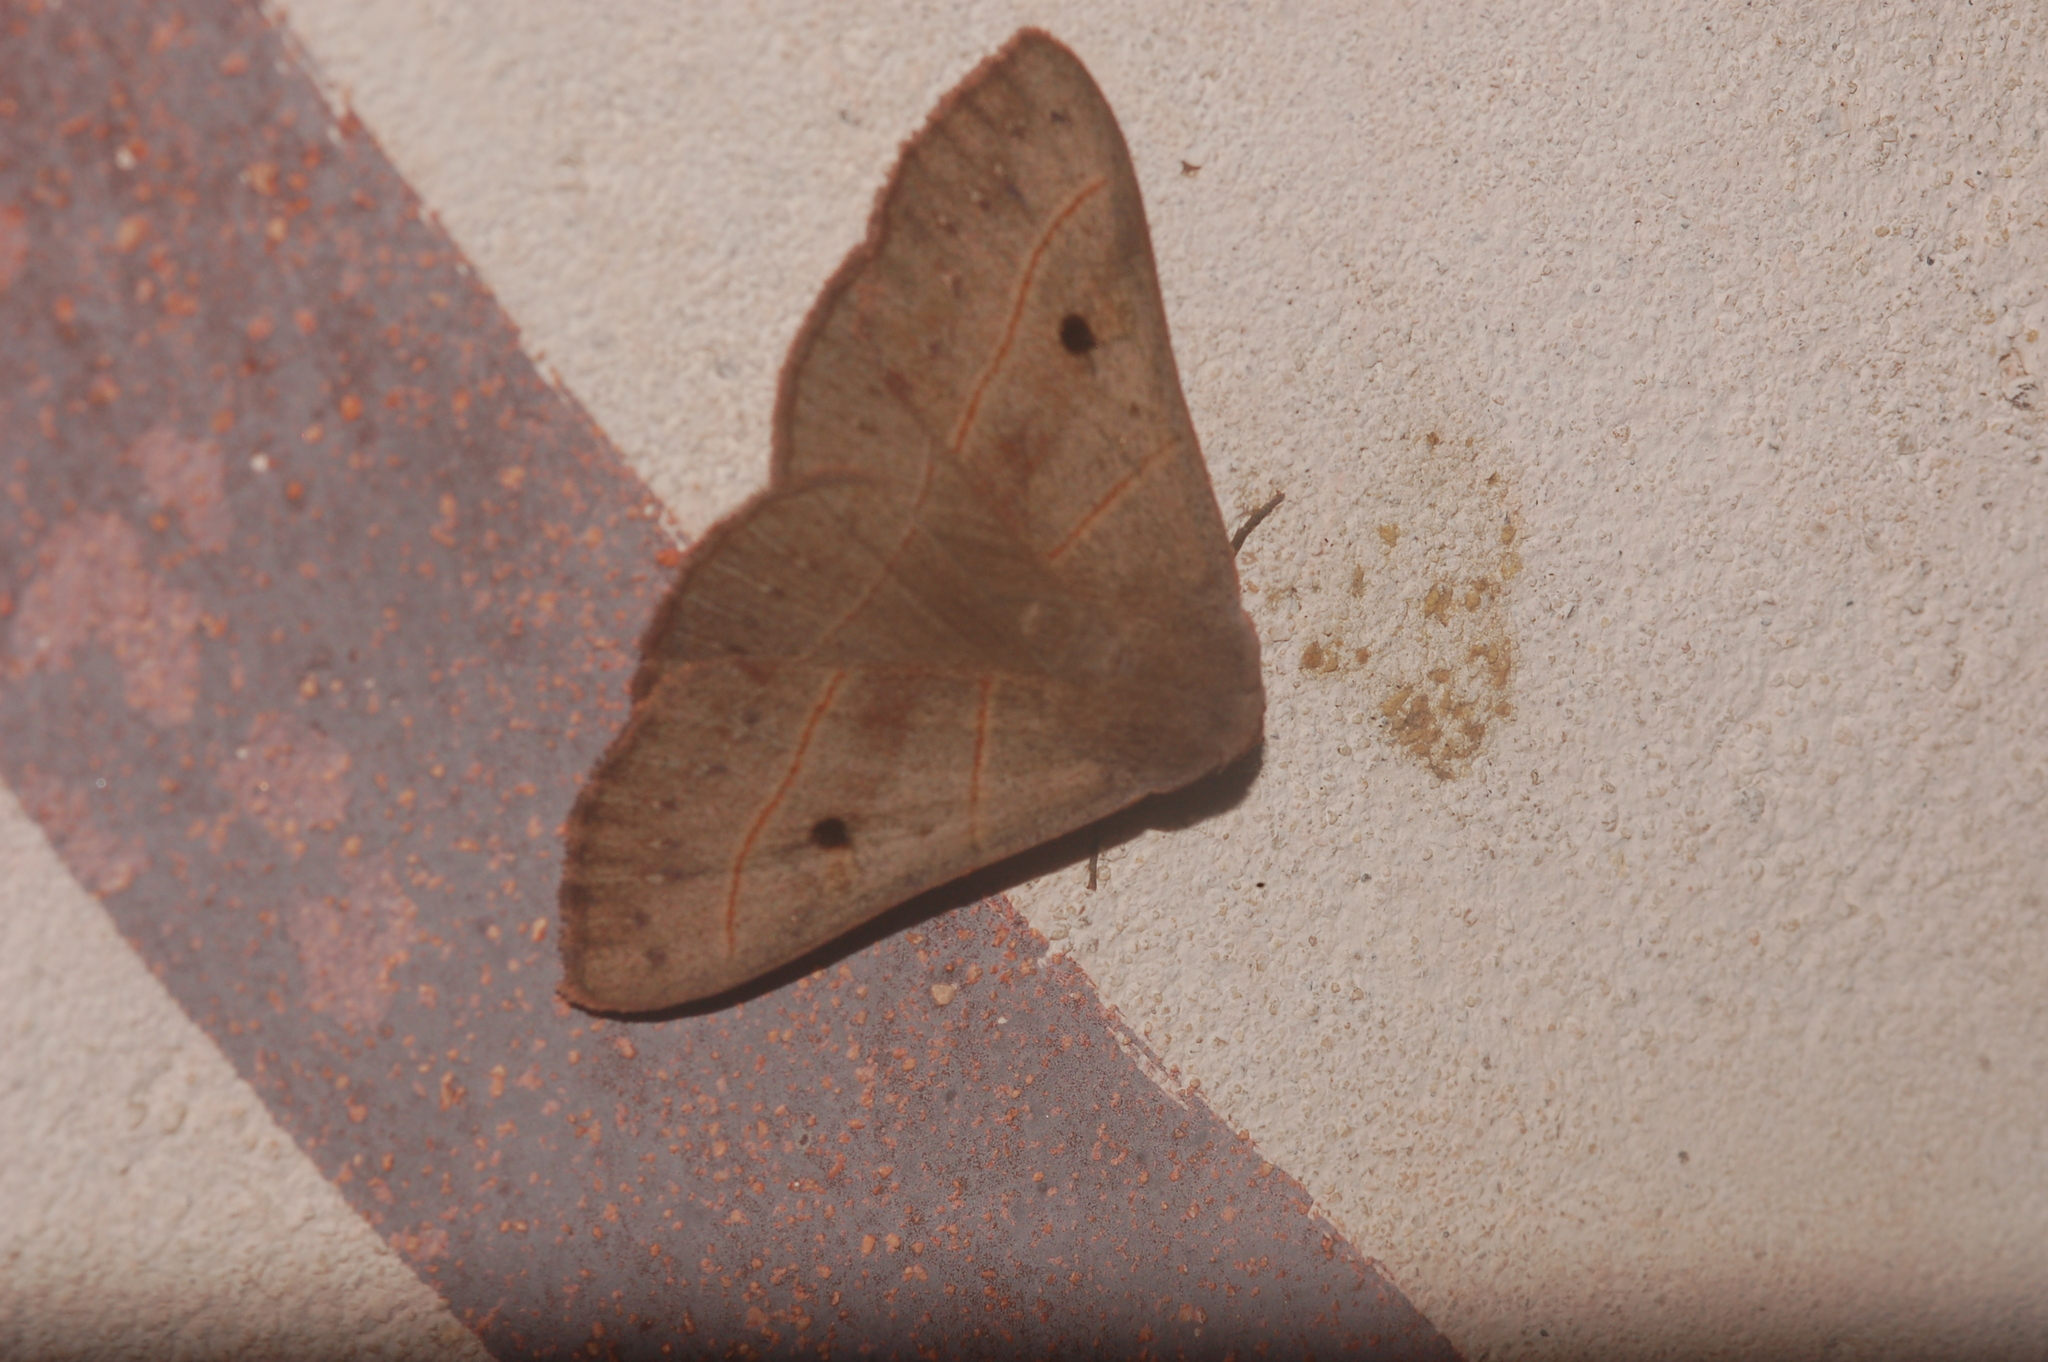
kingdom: Animalia
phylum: Arthropoda
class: Insecta
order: Lepidoptera
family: Erebidae
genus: Panopoda
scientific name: Panopoda rufimargo
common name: Red-lined panopoda moth
